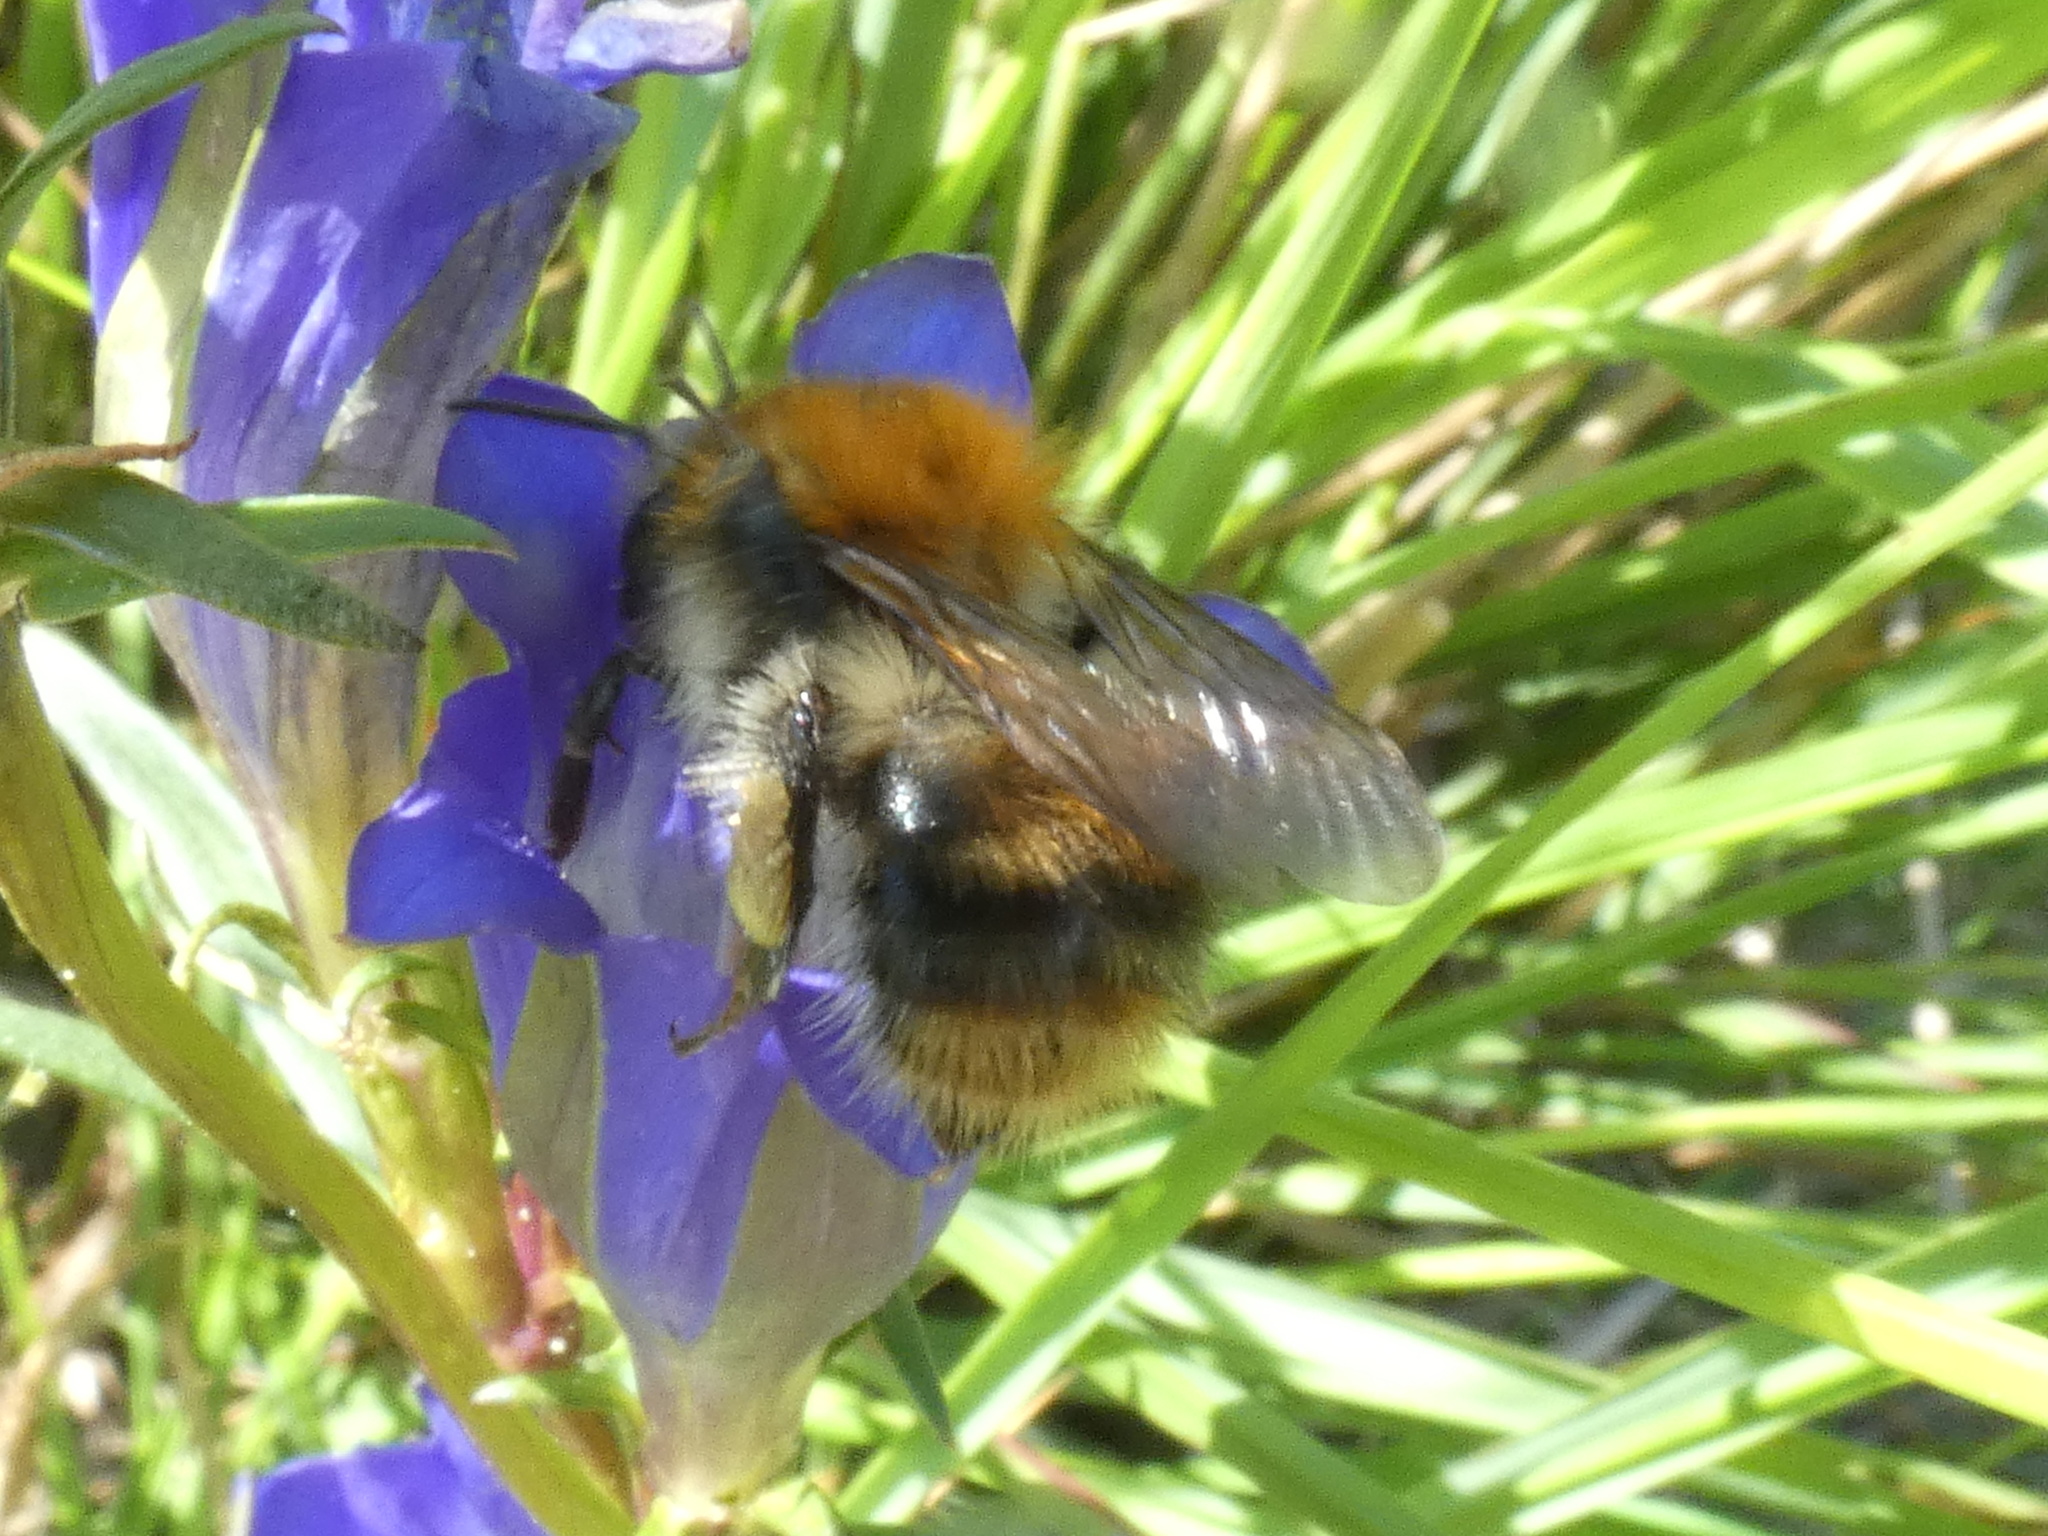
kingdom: Animalia
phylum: Arthropoda
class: Insecta
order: Hymenoptera
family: Apidae
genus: Bombus
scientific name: Bombus pascuorum
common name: Common carder bee
